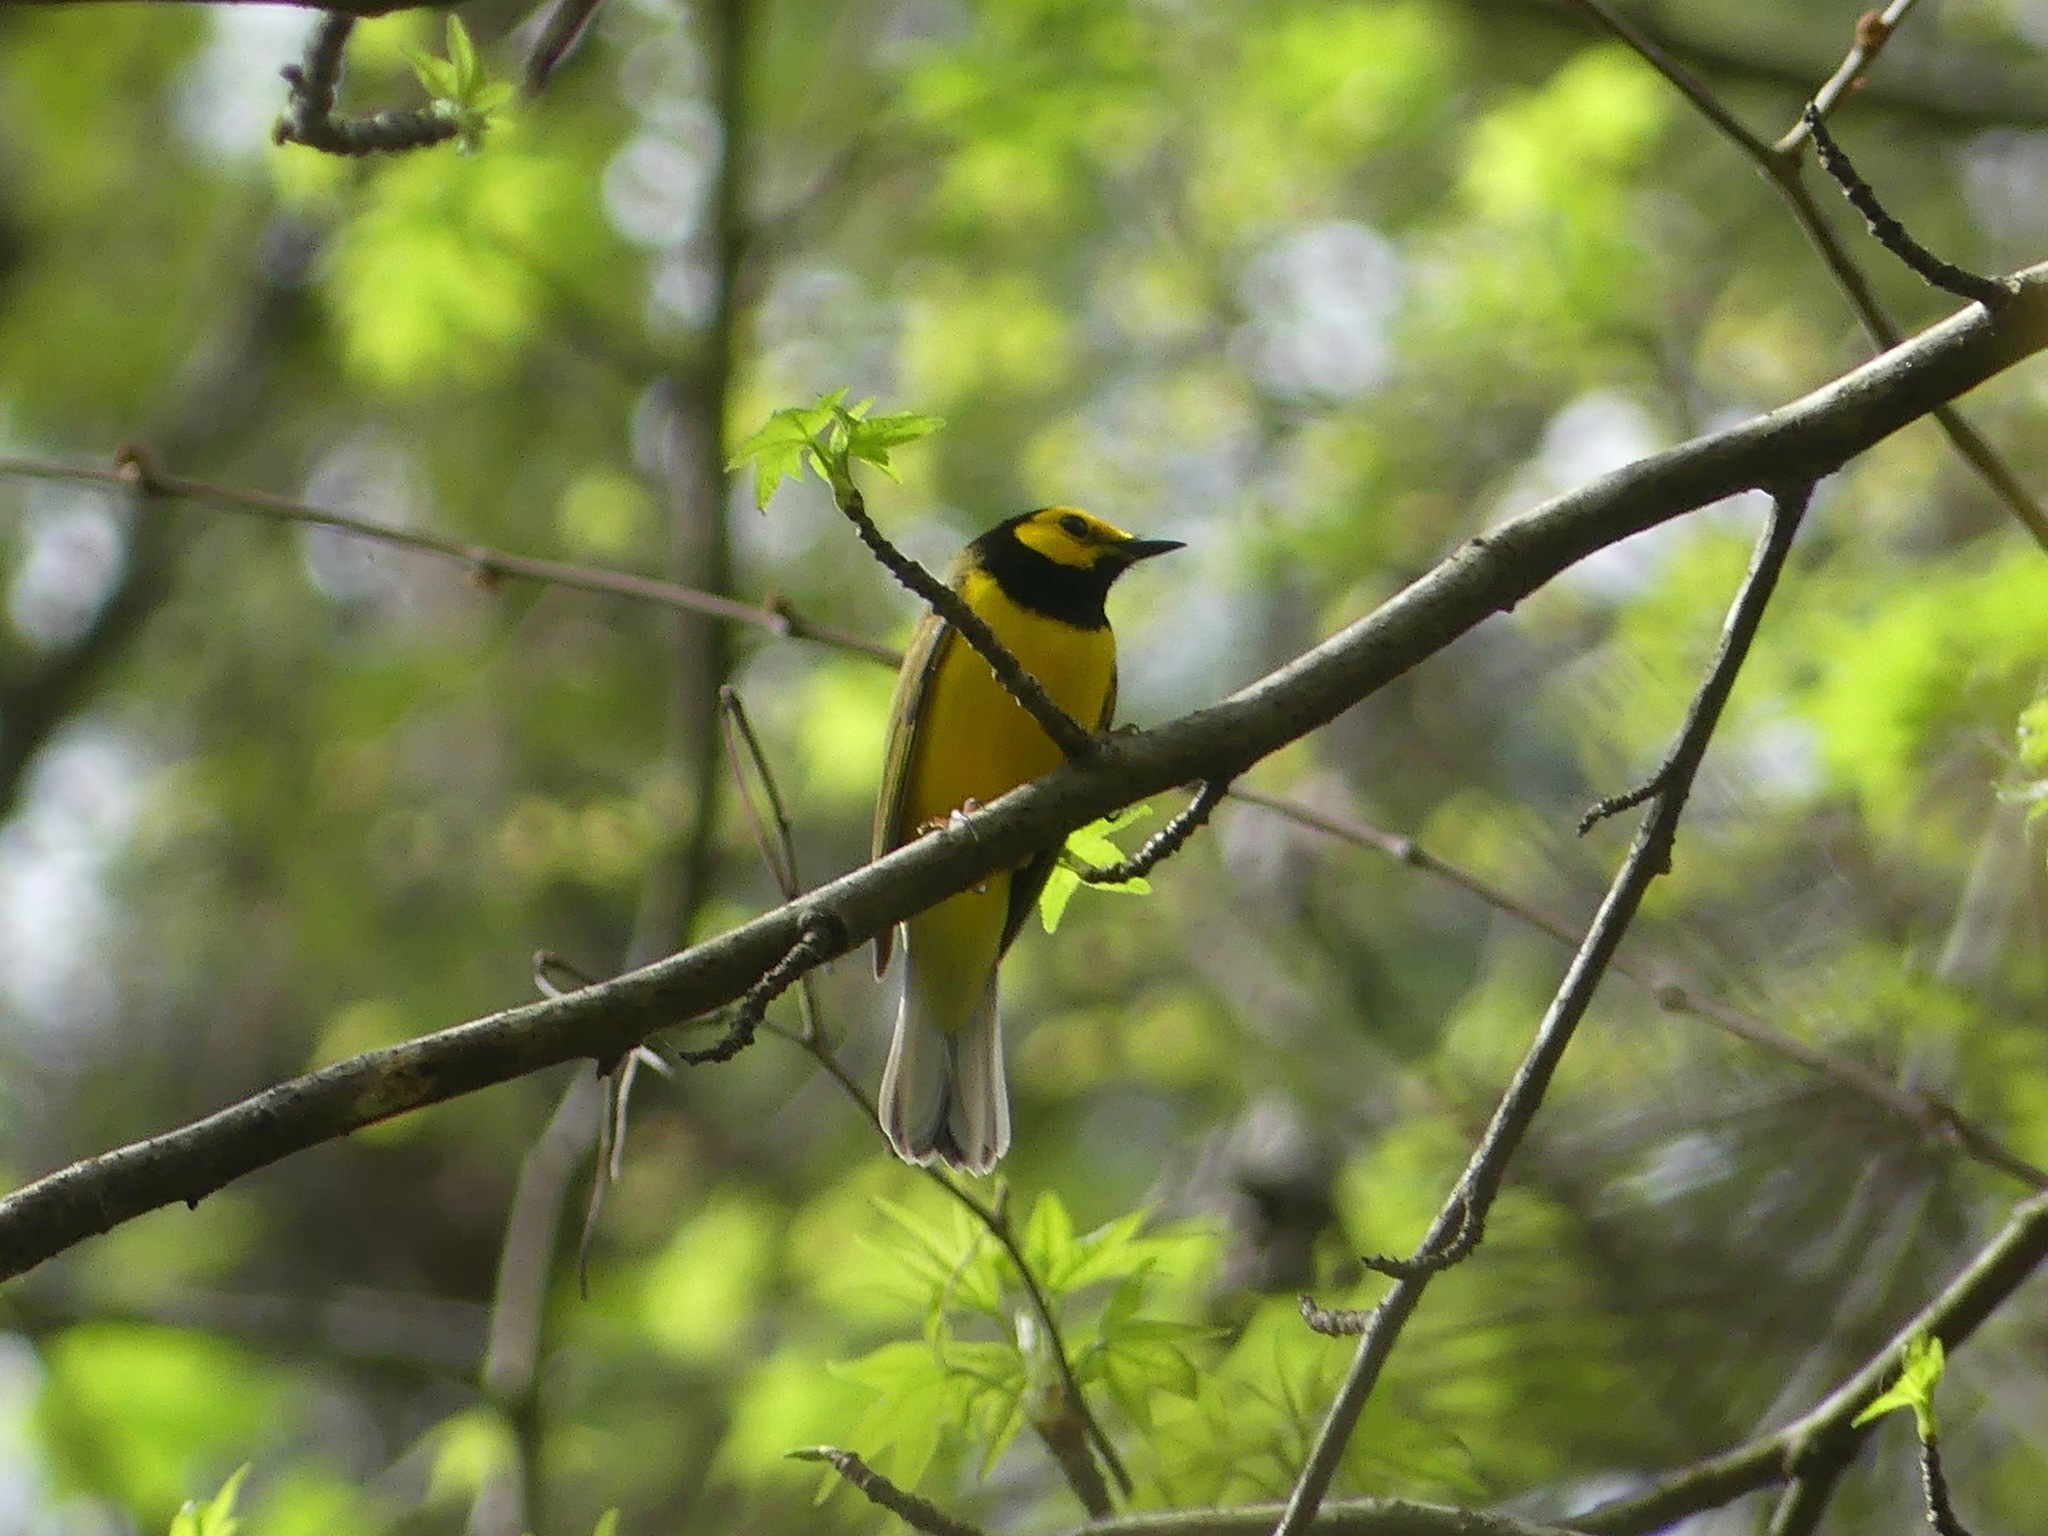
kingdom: Animalia
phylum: Chordata
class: Aves
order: Passeriformes
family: Parulidae
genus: Setophaga
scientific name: Setophaga citrina
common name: Hooded warbler
